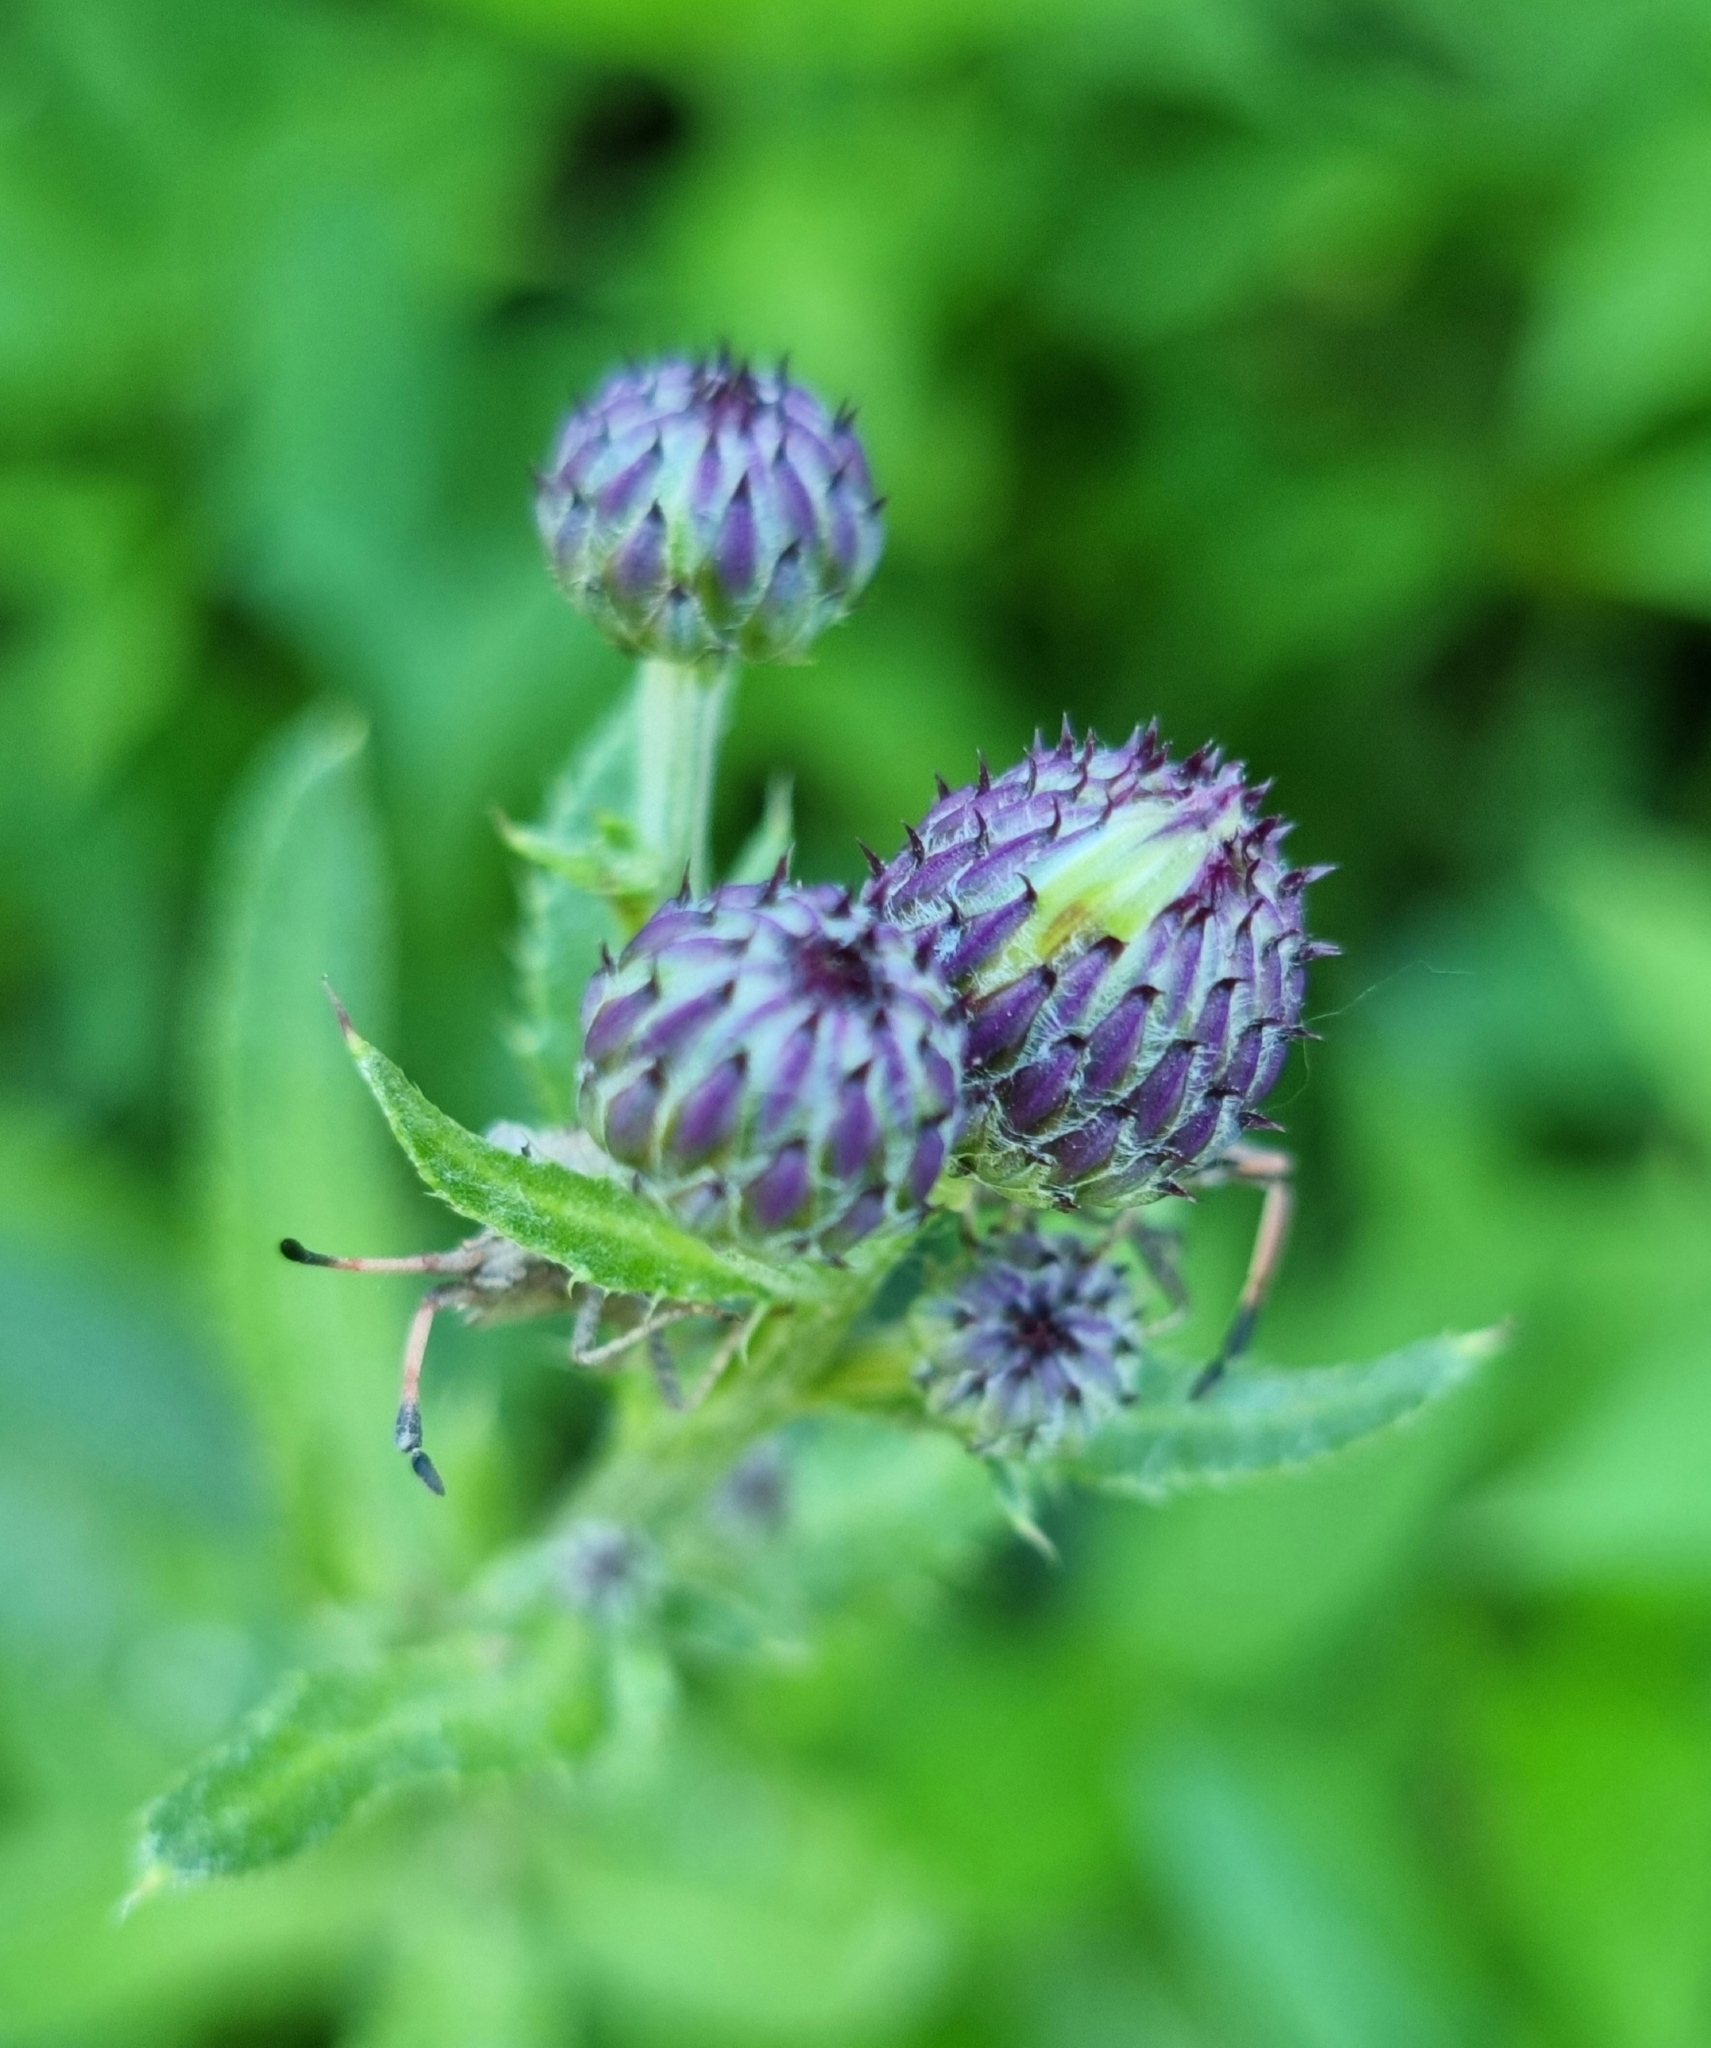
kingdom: Plantae
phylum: Tracheophyta
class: Magnoliopsida
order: Asterales
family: Asteraceae
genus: Cirsium
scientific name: Cirsium arvense
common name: Creeping thistle
